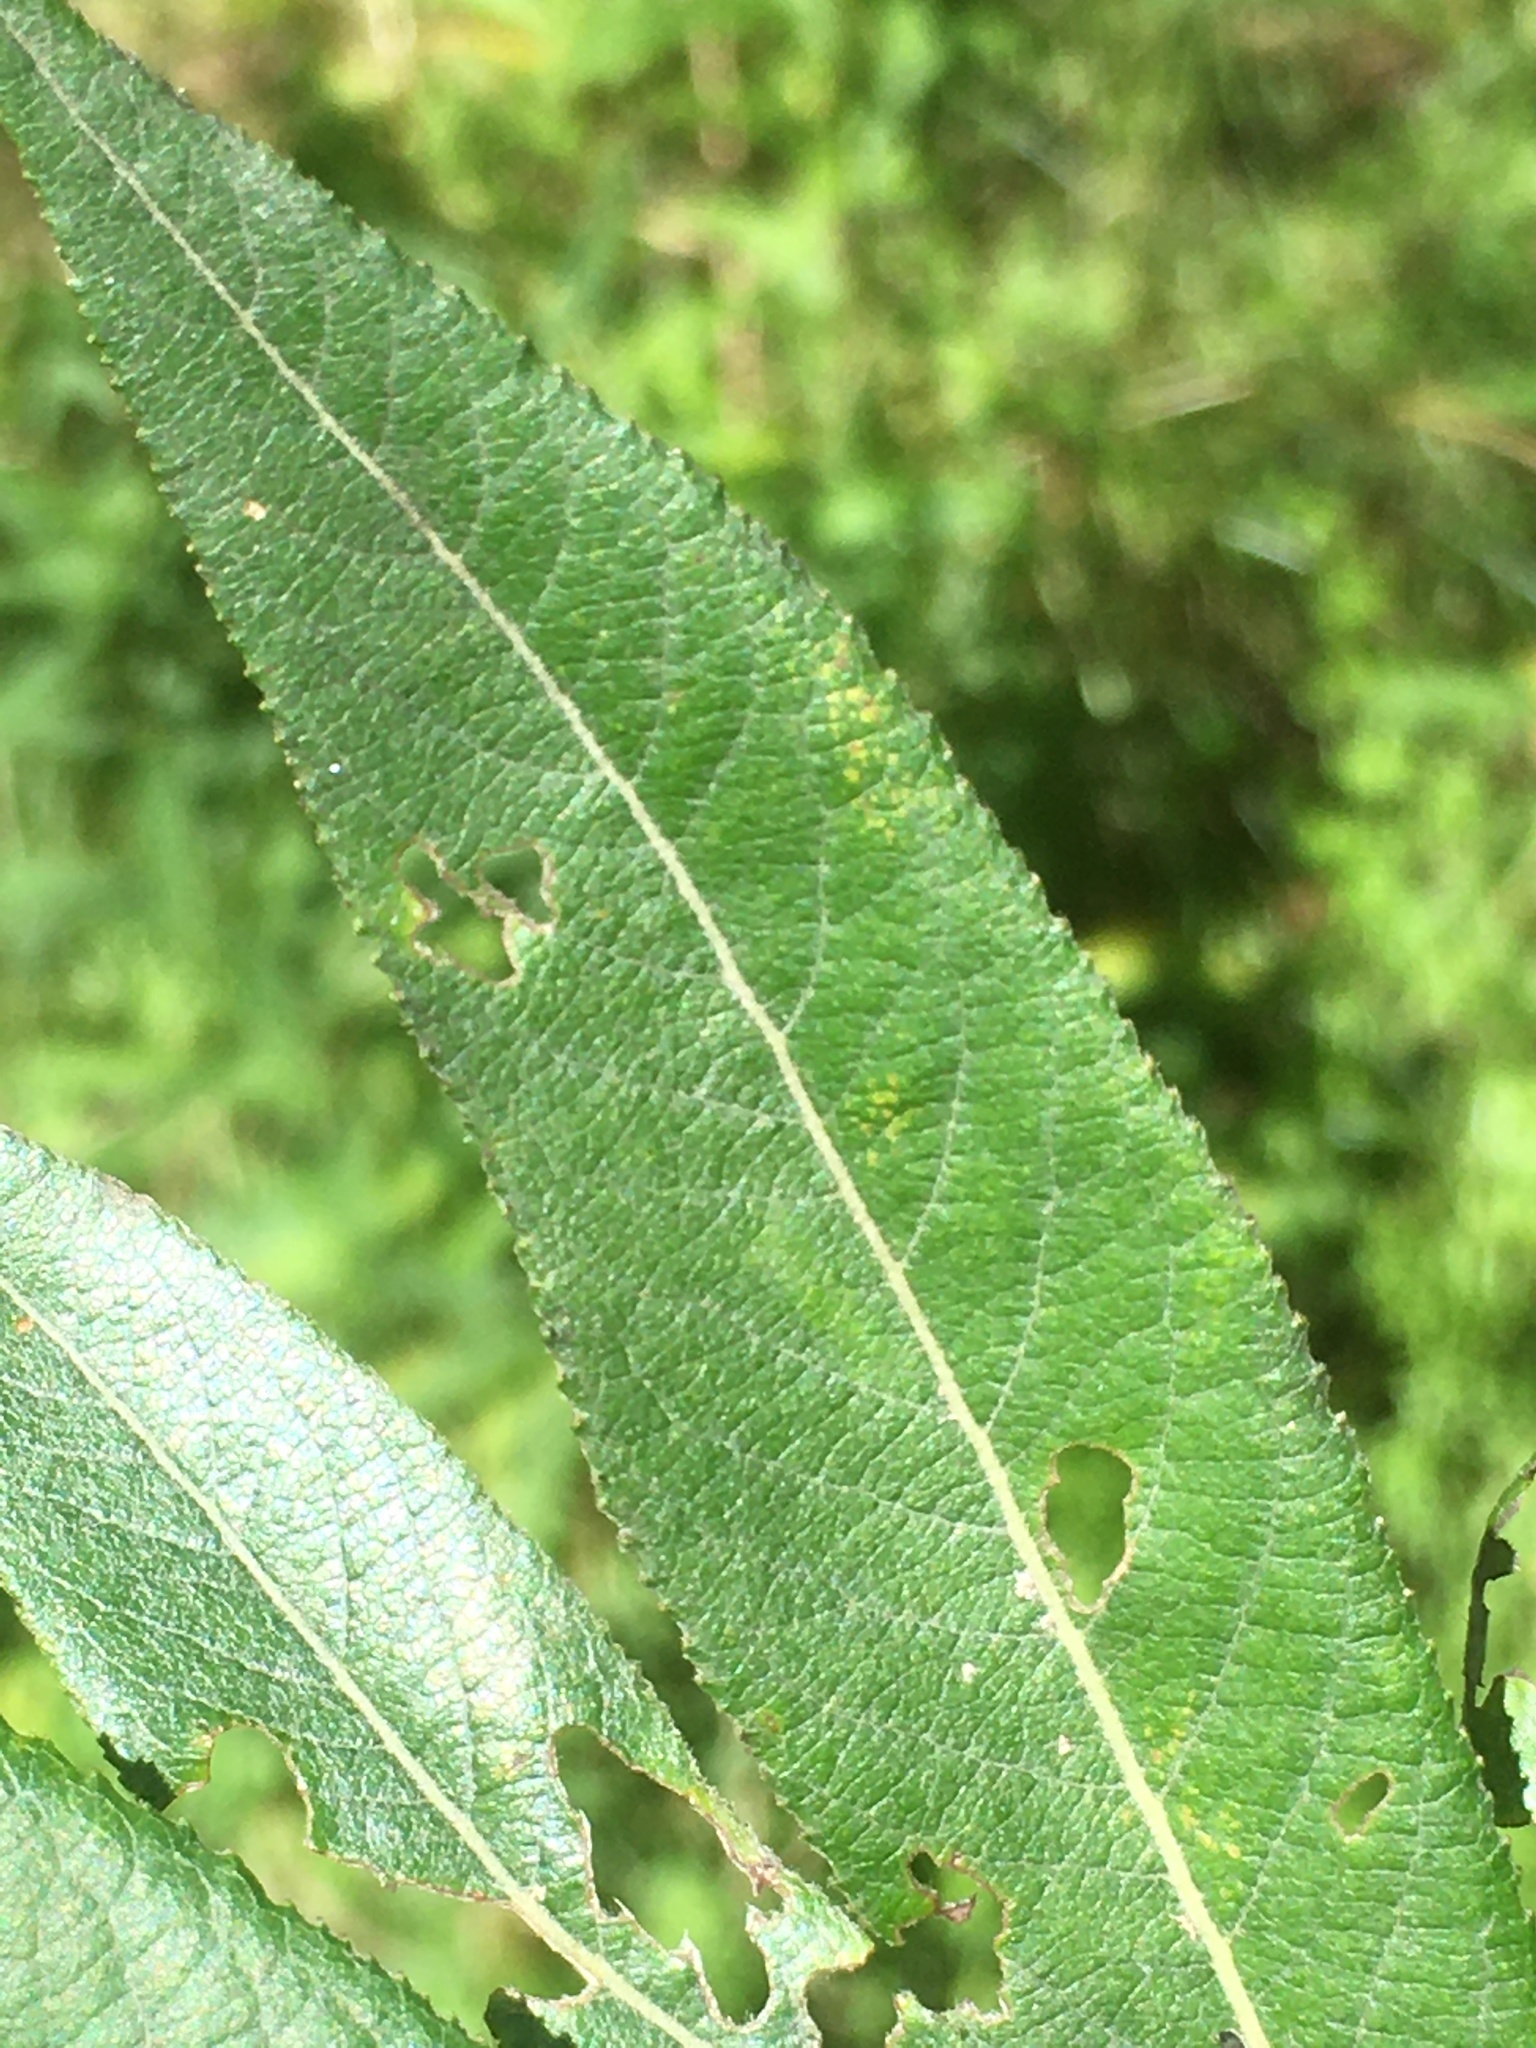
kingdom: Plantae
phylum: Tracheophyta
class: Magnoliopsida
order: Malpighiales
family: Salicaceae
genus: Salix
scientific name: Salix sericea
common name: Silky willow
